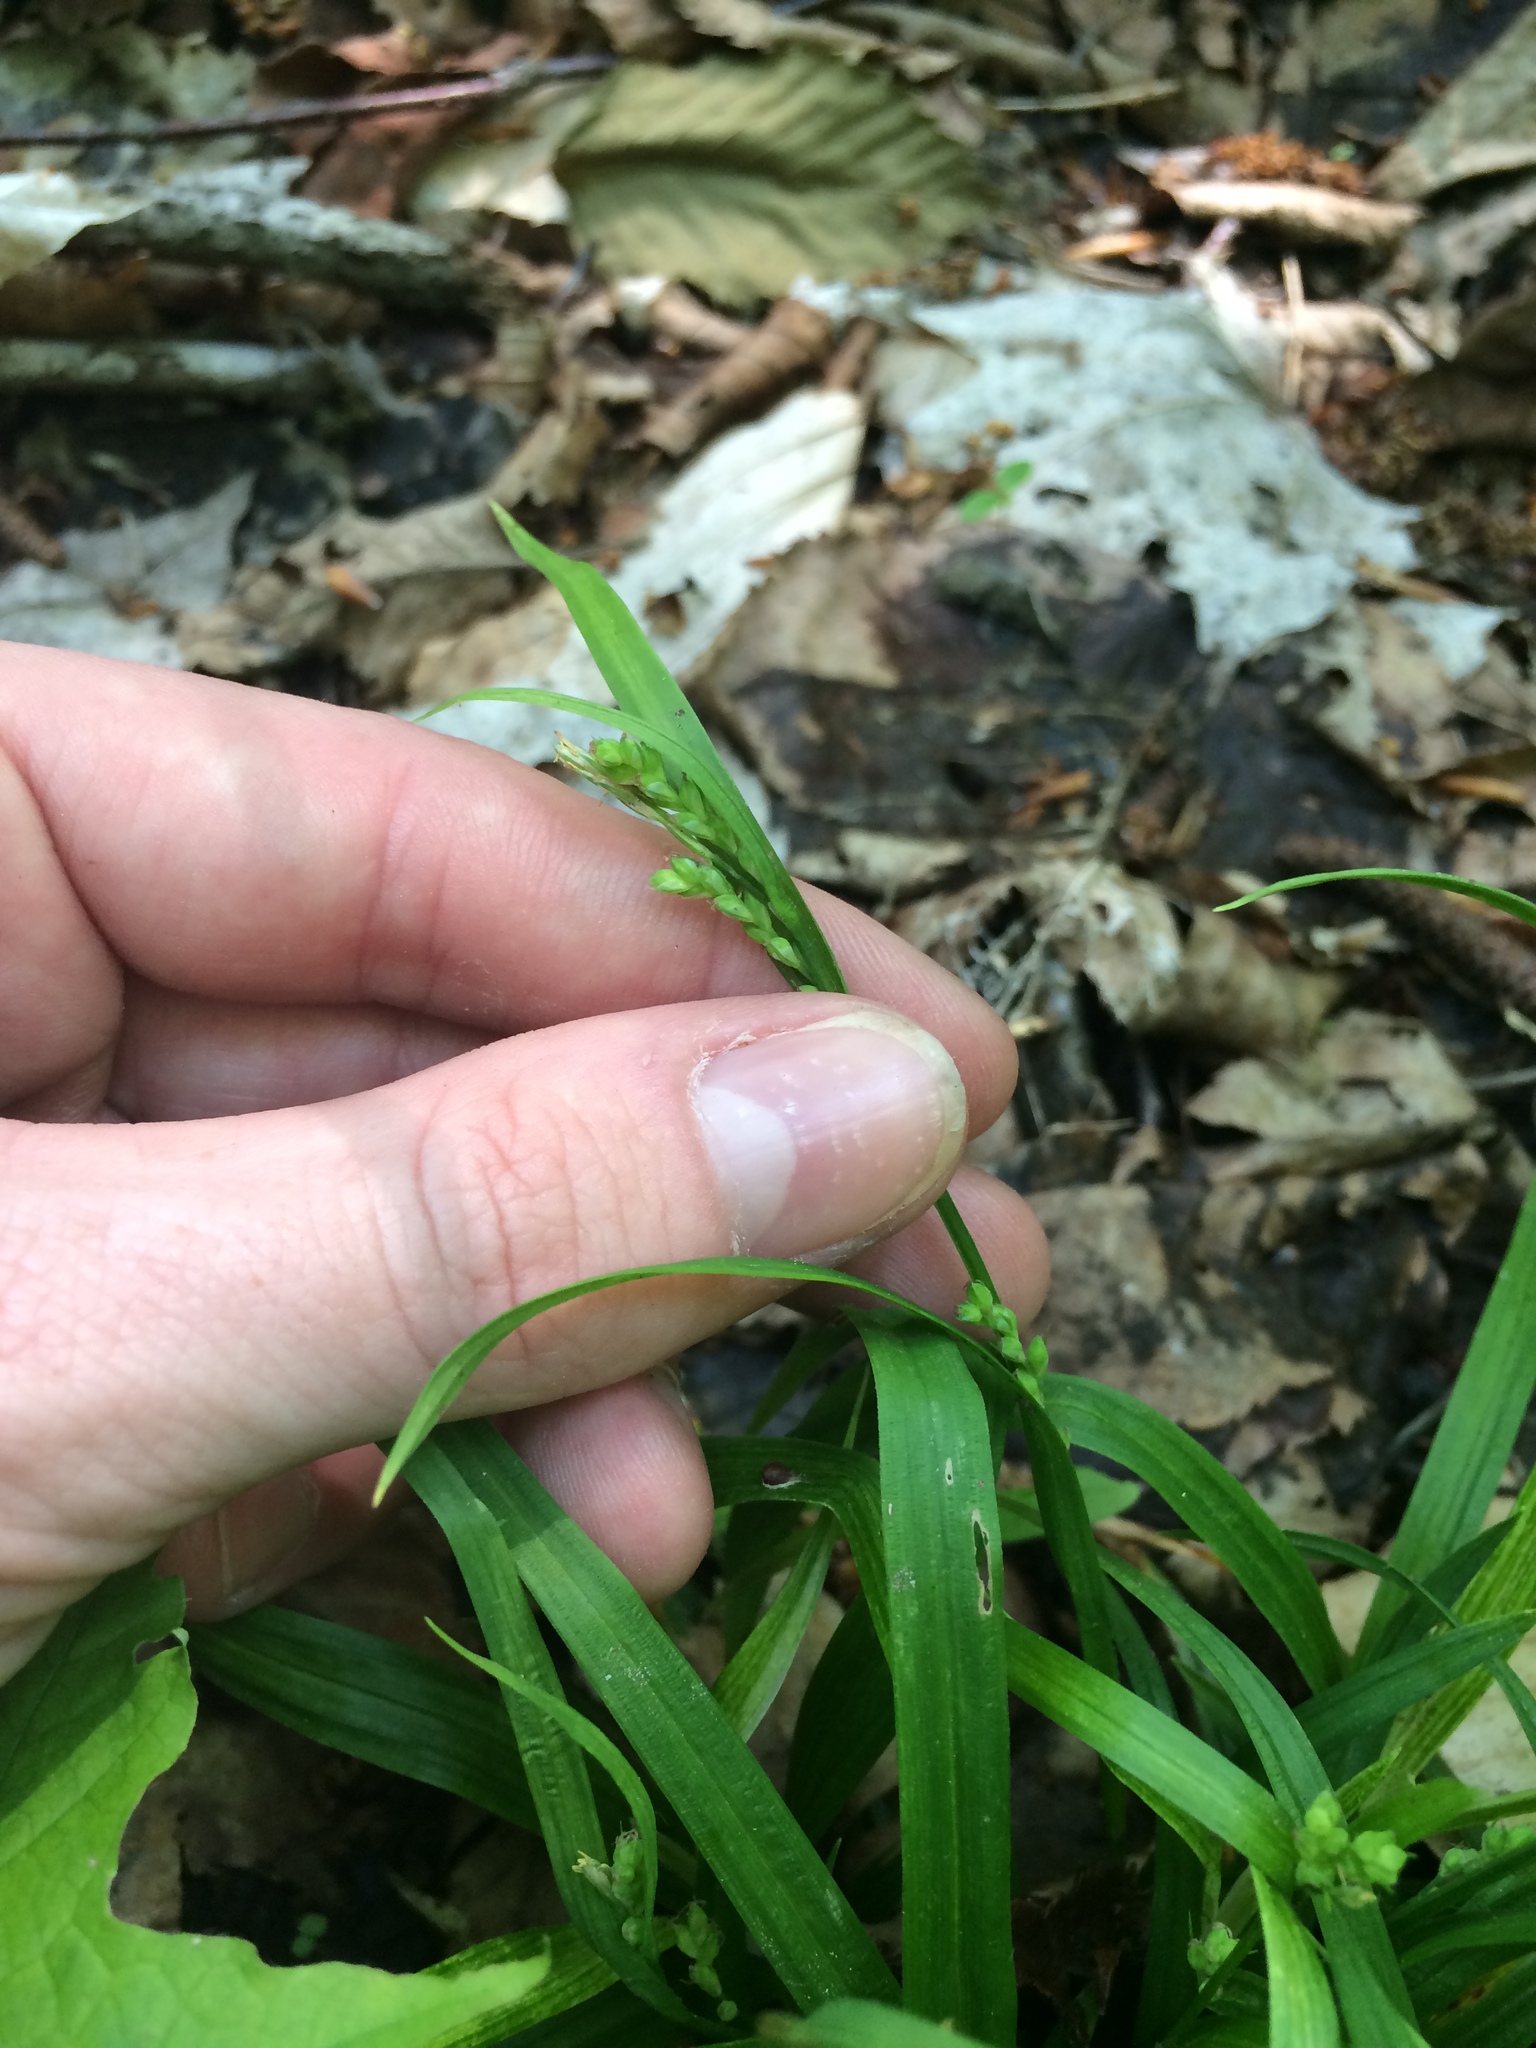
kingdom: Plantae
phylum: Tracheophyta
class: Liliopsida
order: Poales
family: Cyperaceae
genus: Carex
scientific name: Carex leptonervia
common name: Few-nerved wood sedge
